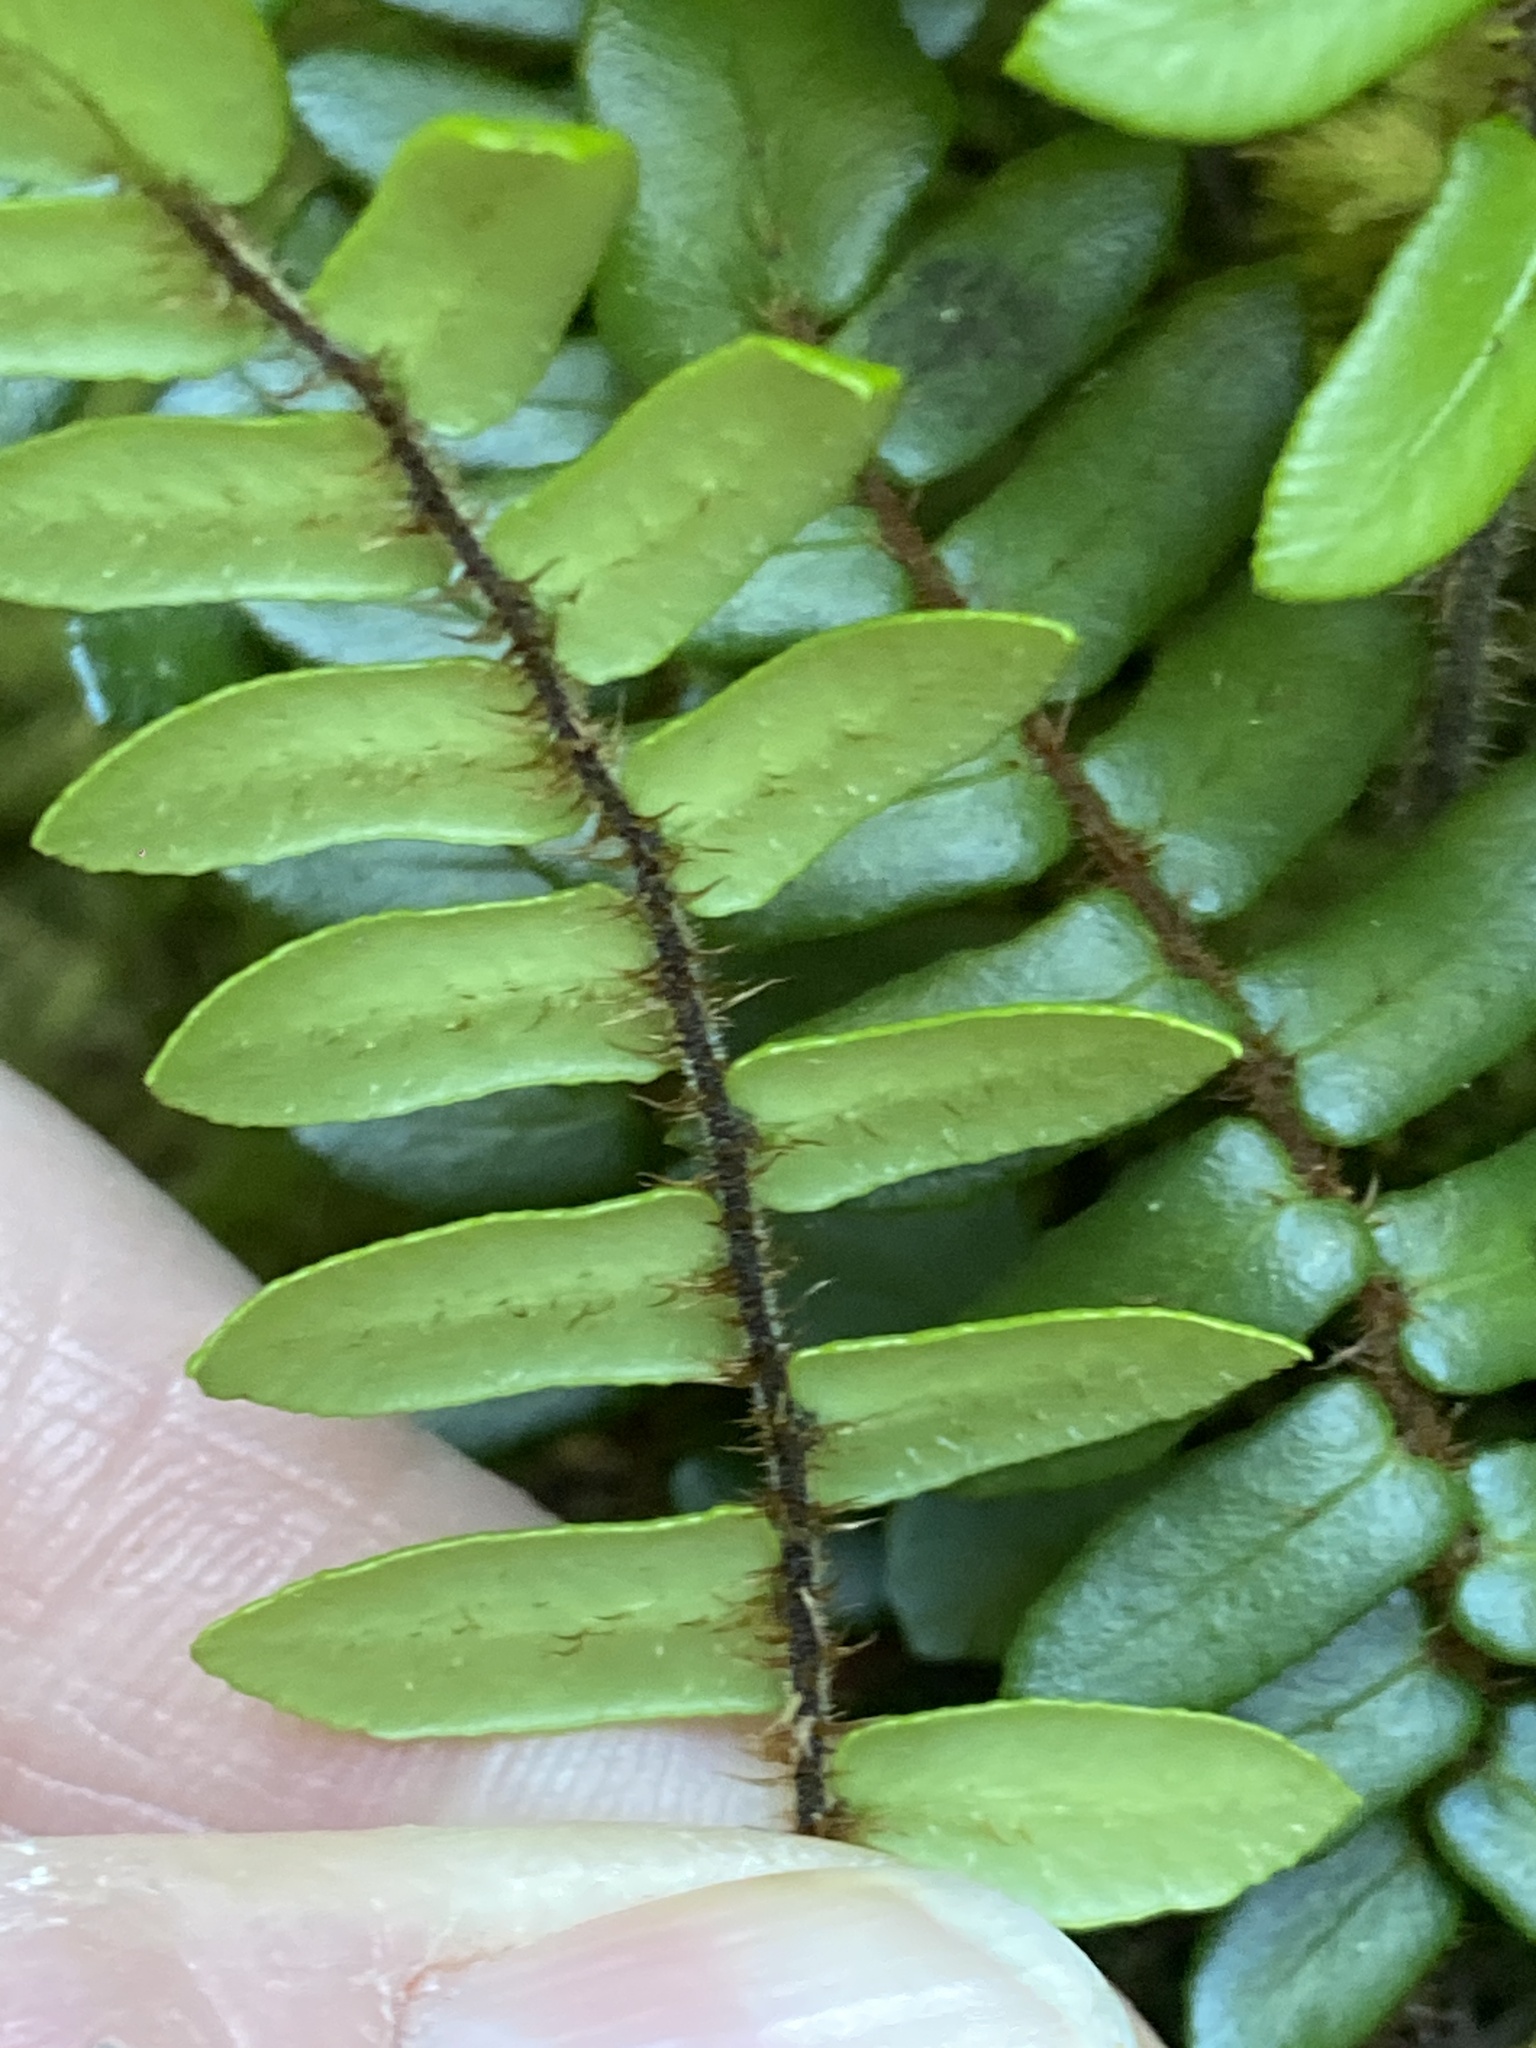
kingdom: Plantae
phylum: Tracheophyta
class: Polypodiopsida
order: Polypodiales
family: Pteridaceae
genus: Pellaea
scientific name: Pellaea nana
